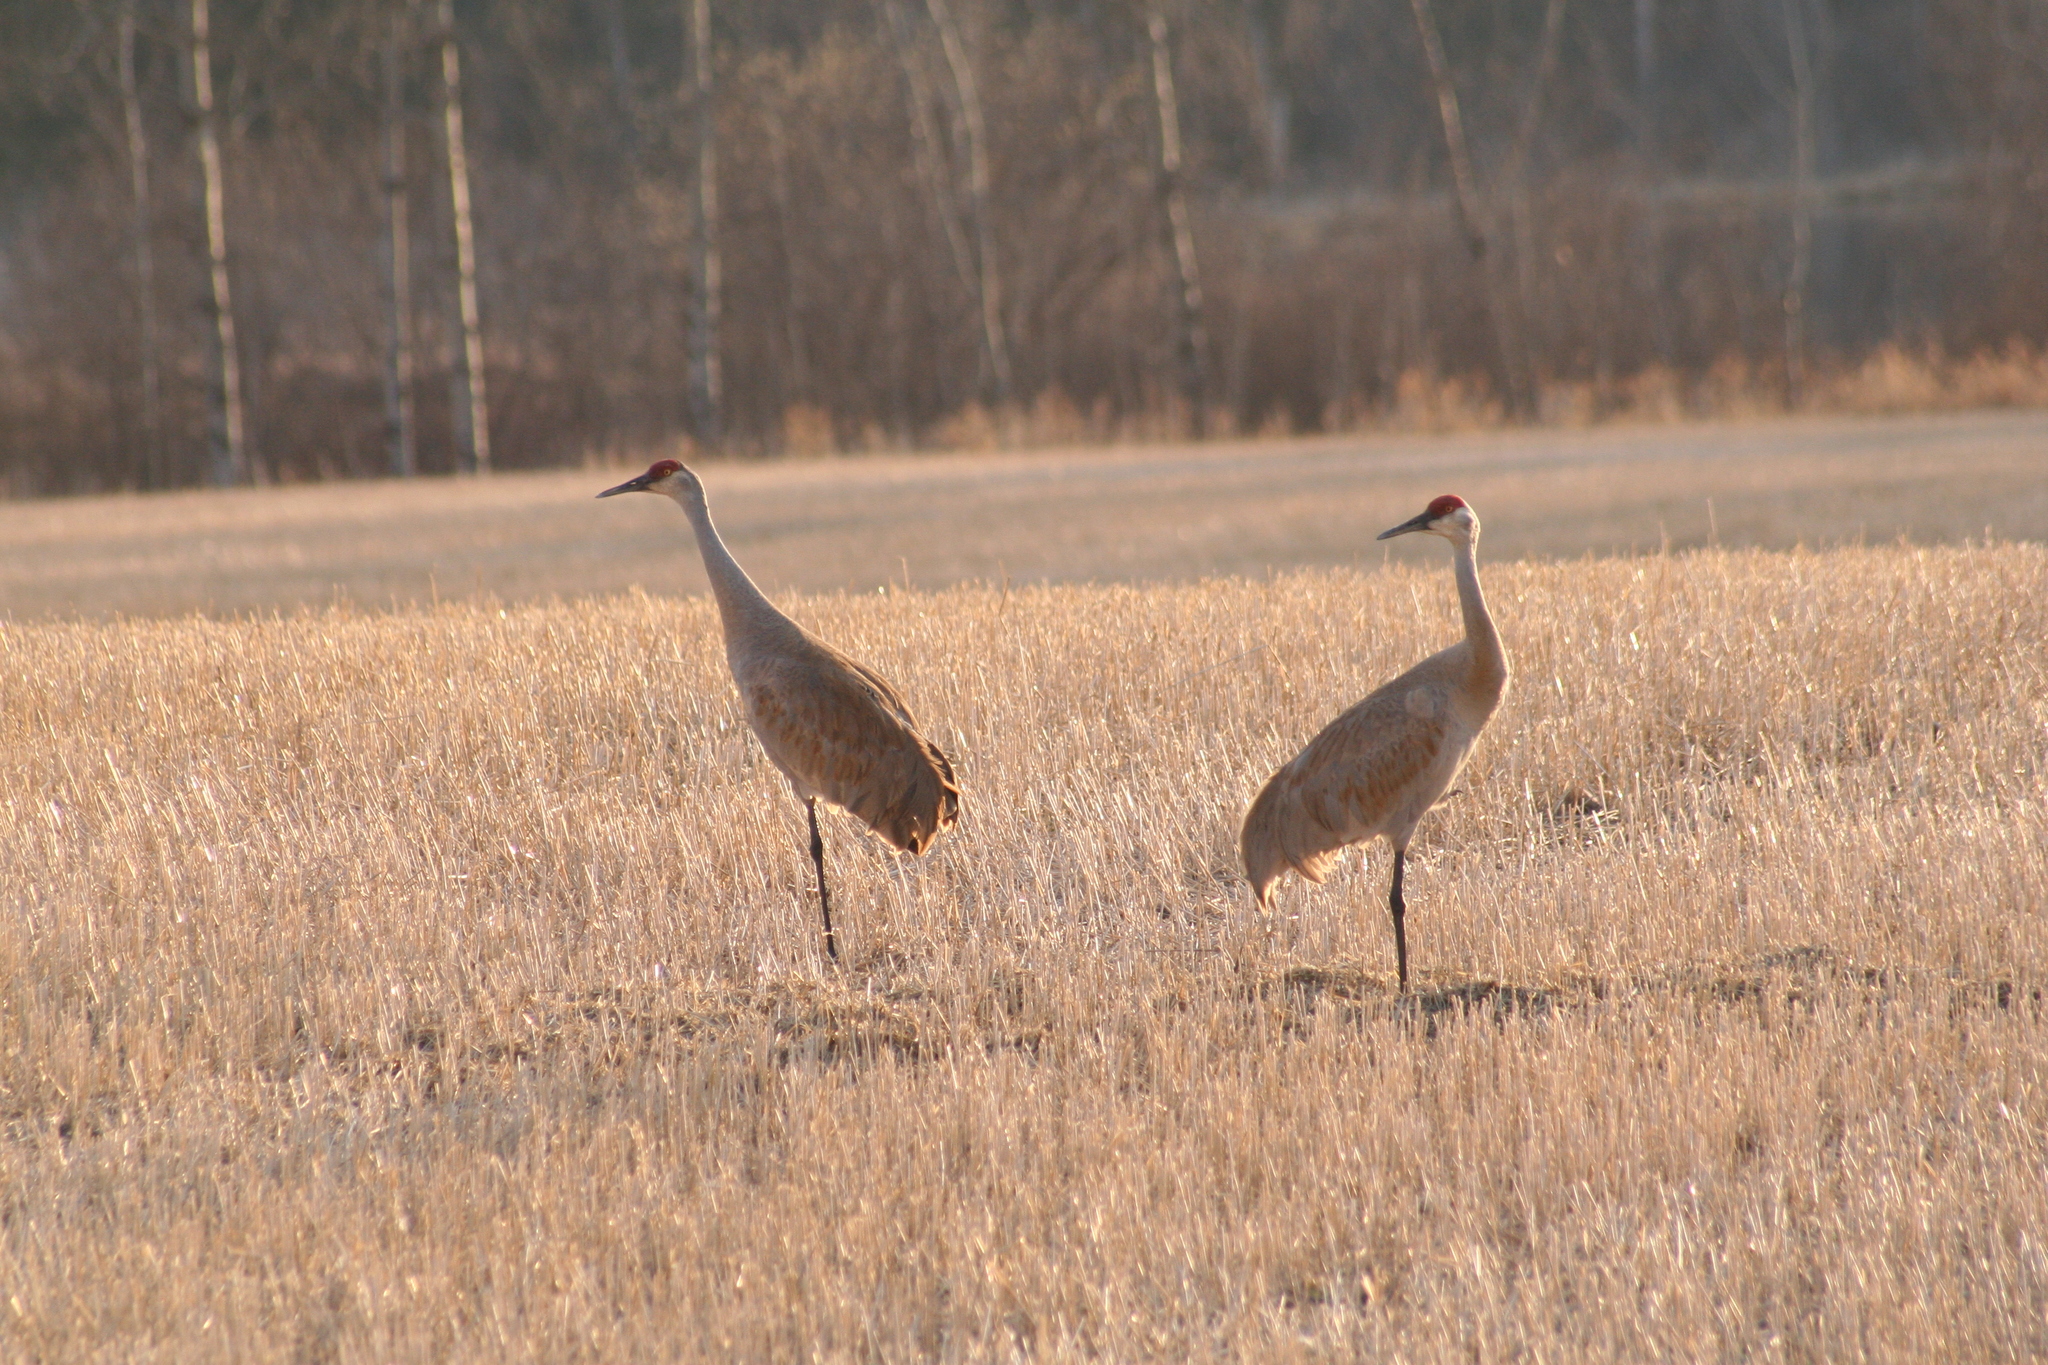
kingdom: Animalia
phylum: Chordata
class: Aves
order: Gruiformes
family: Gruidae
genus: Grus
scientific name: Grus canadensis
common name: Sandhill crane
